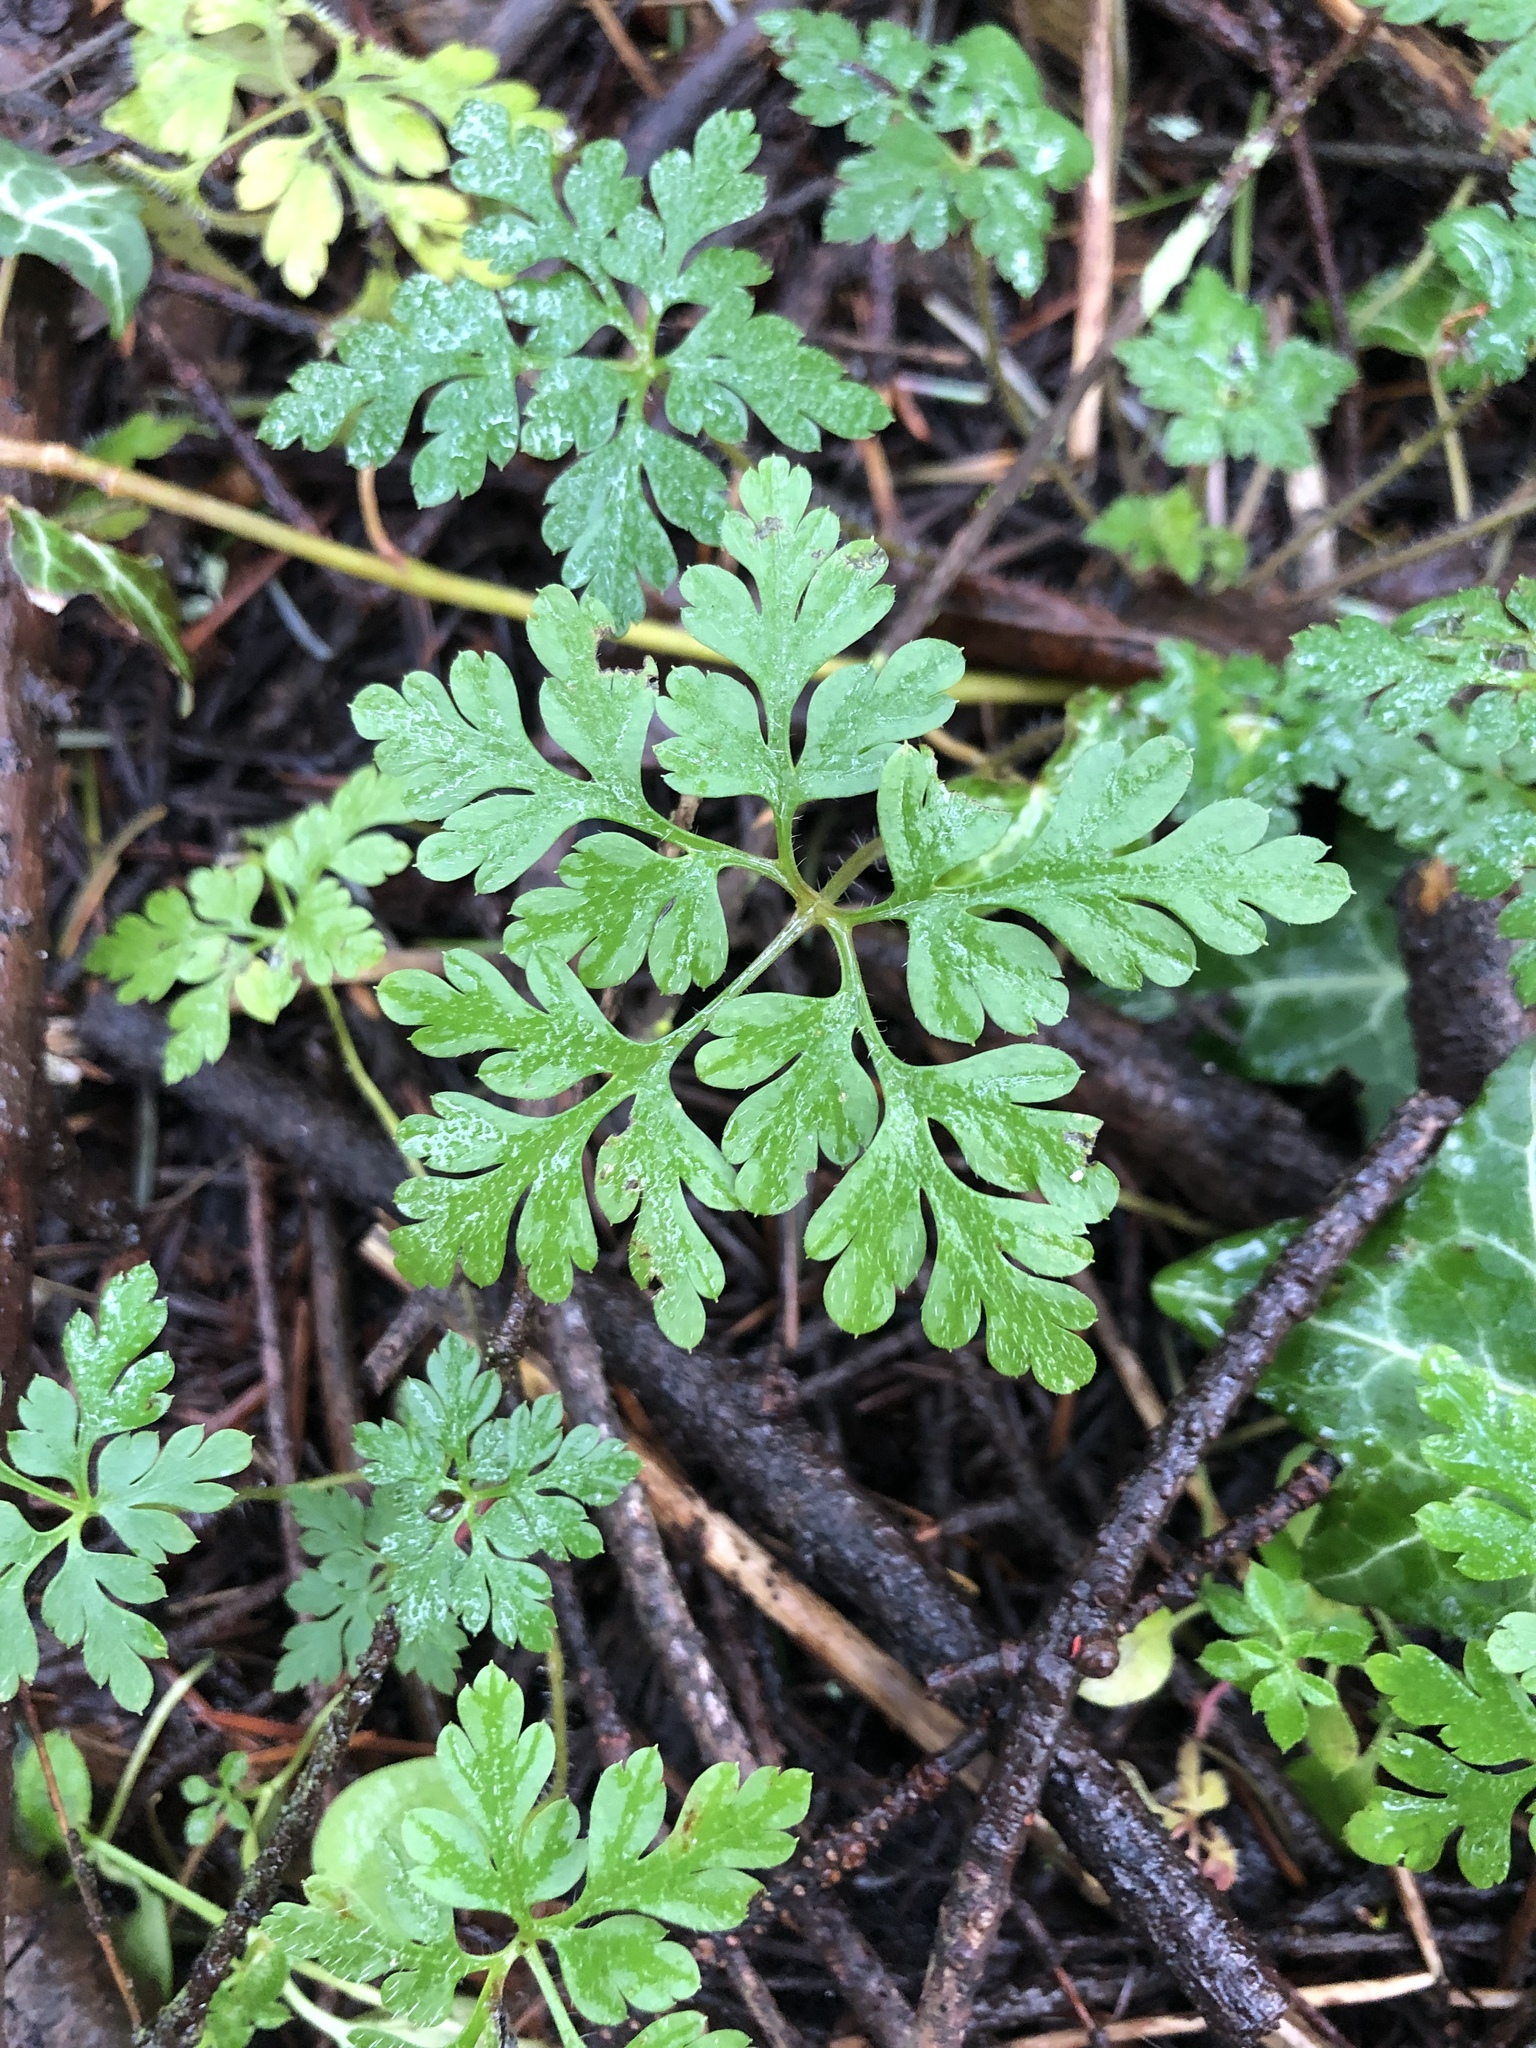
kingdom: Plantae
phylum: Tracheophyta
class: Magnoliopsida
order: Geraniales
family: Geraniaceae
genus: Geranium
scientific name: Geranium robertianum
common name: Herb-robert
